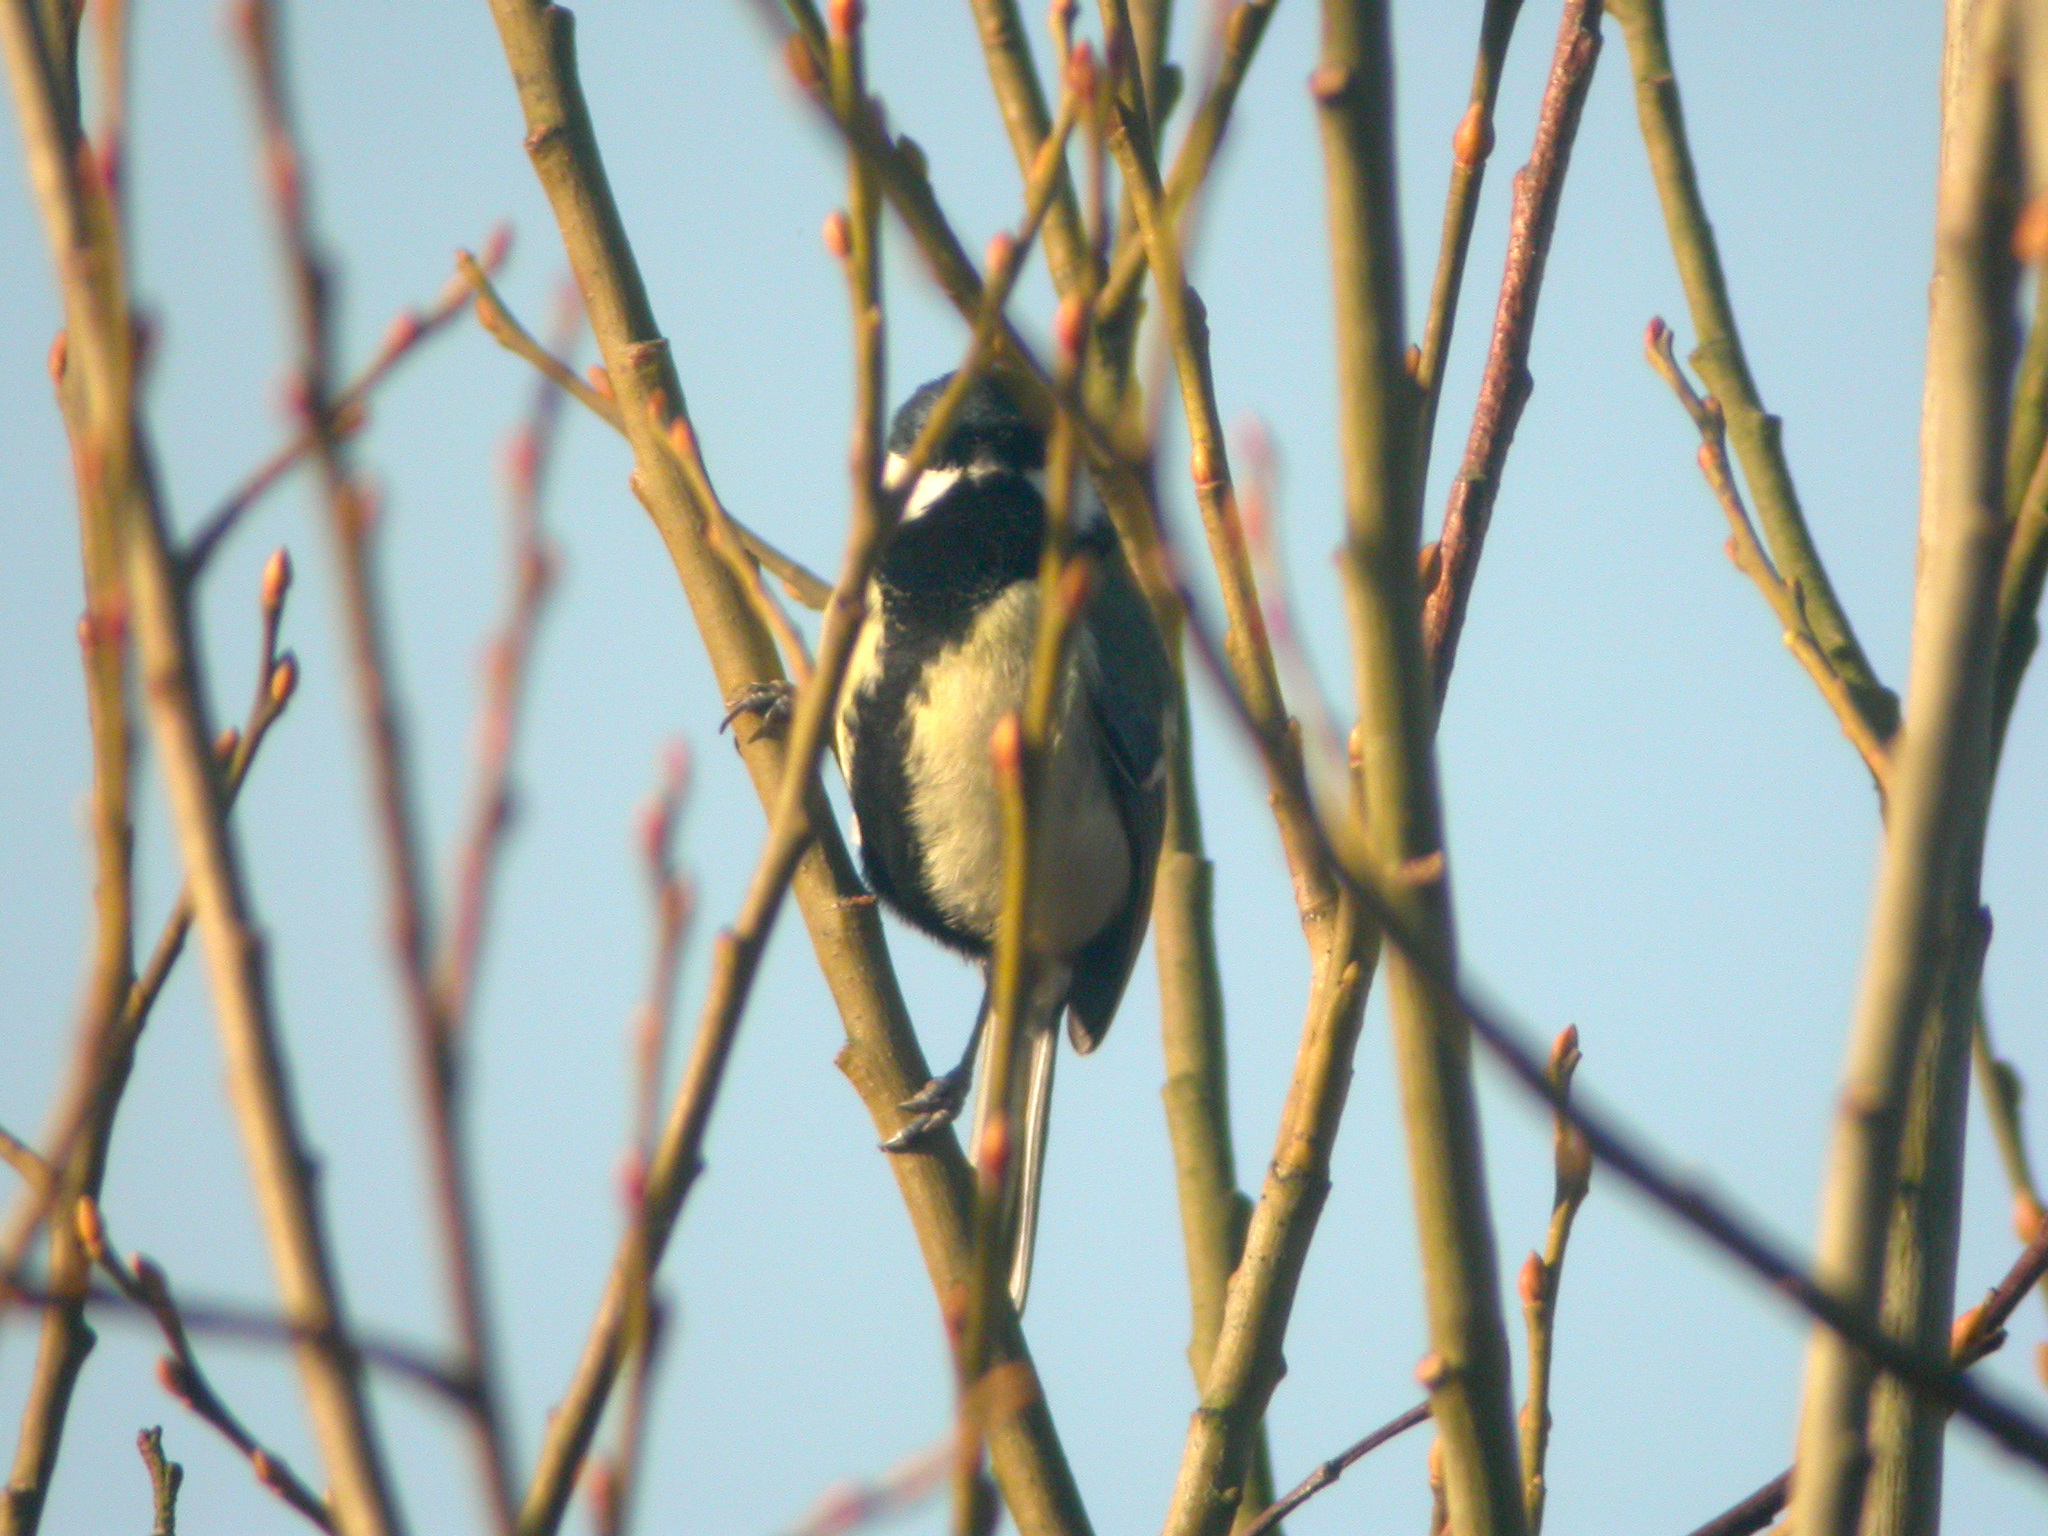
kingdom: Animalia
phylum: Chordata
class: Aves
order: Passeriformes
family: Paridae
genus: Parus
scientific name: Parus major
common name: Great tit
